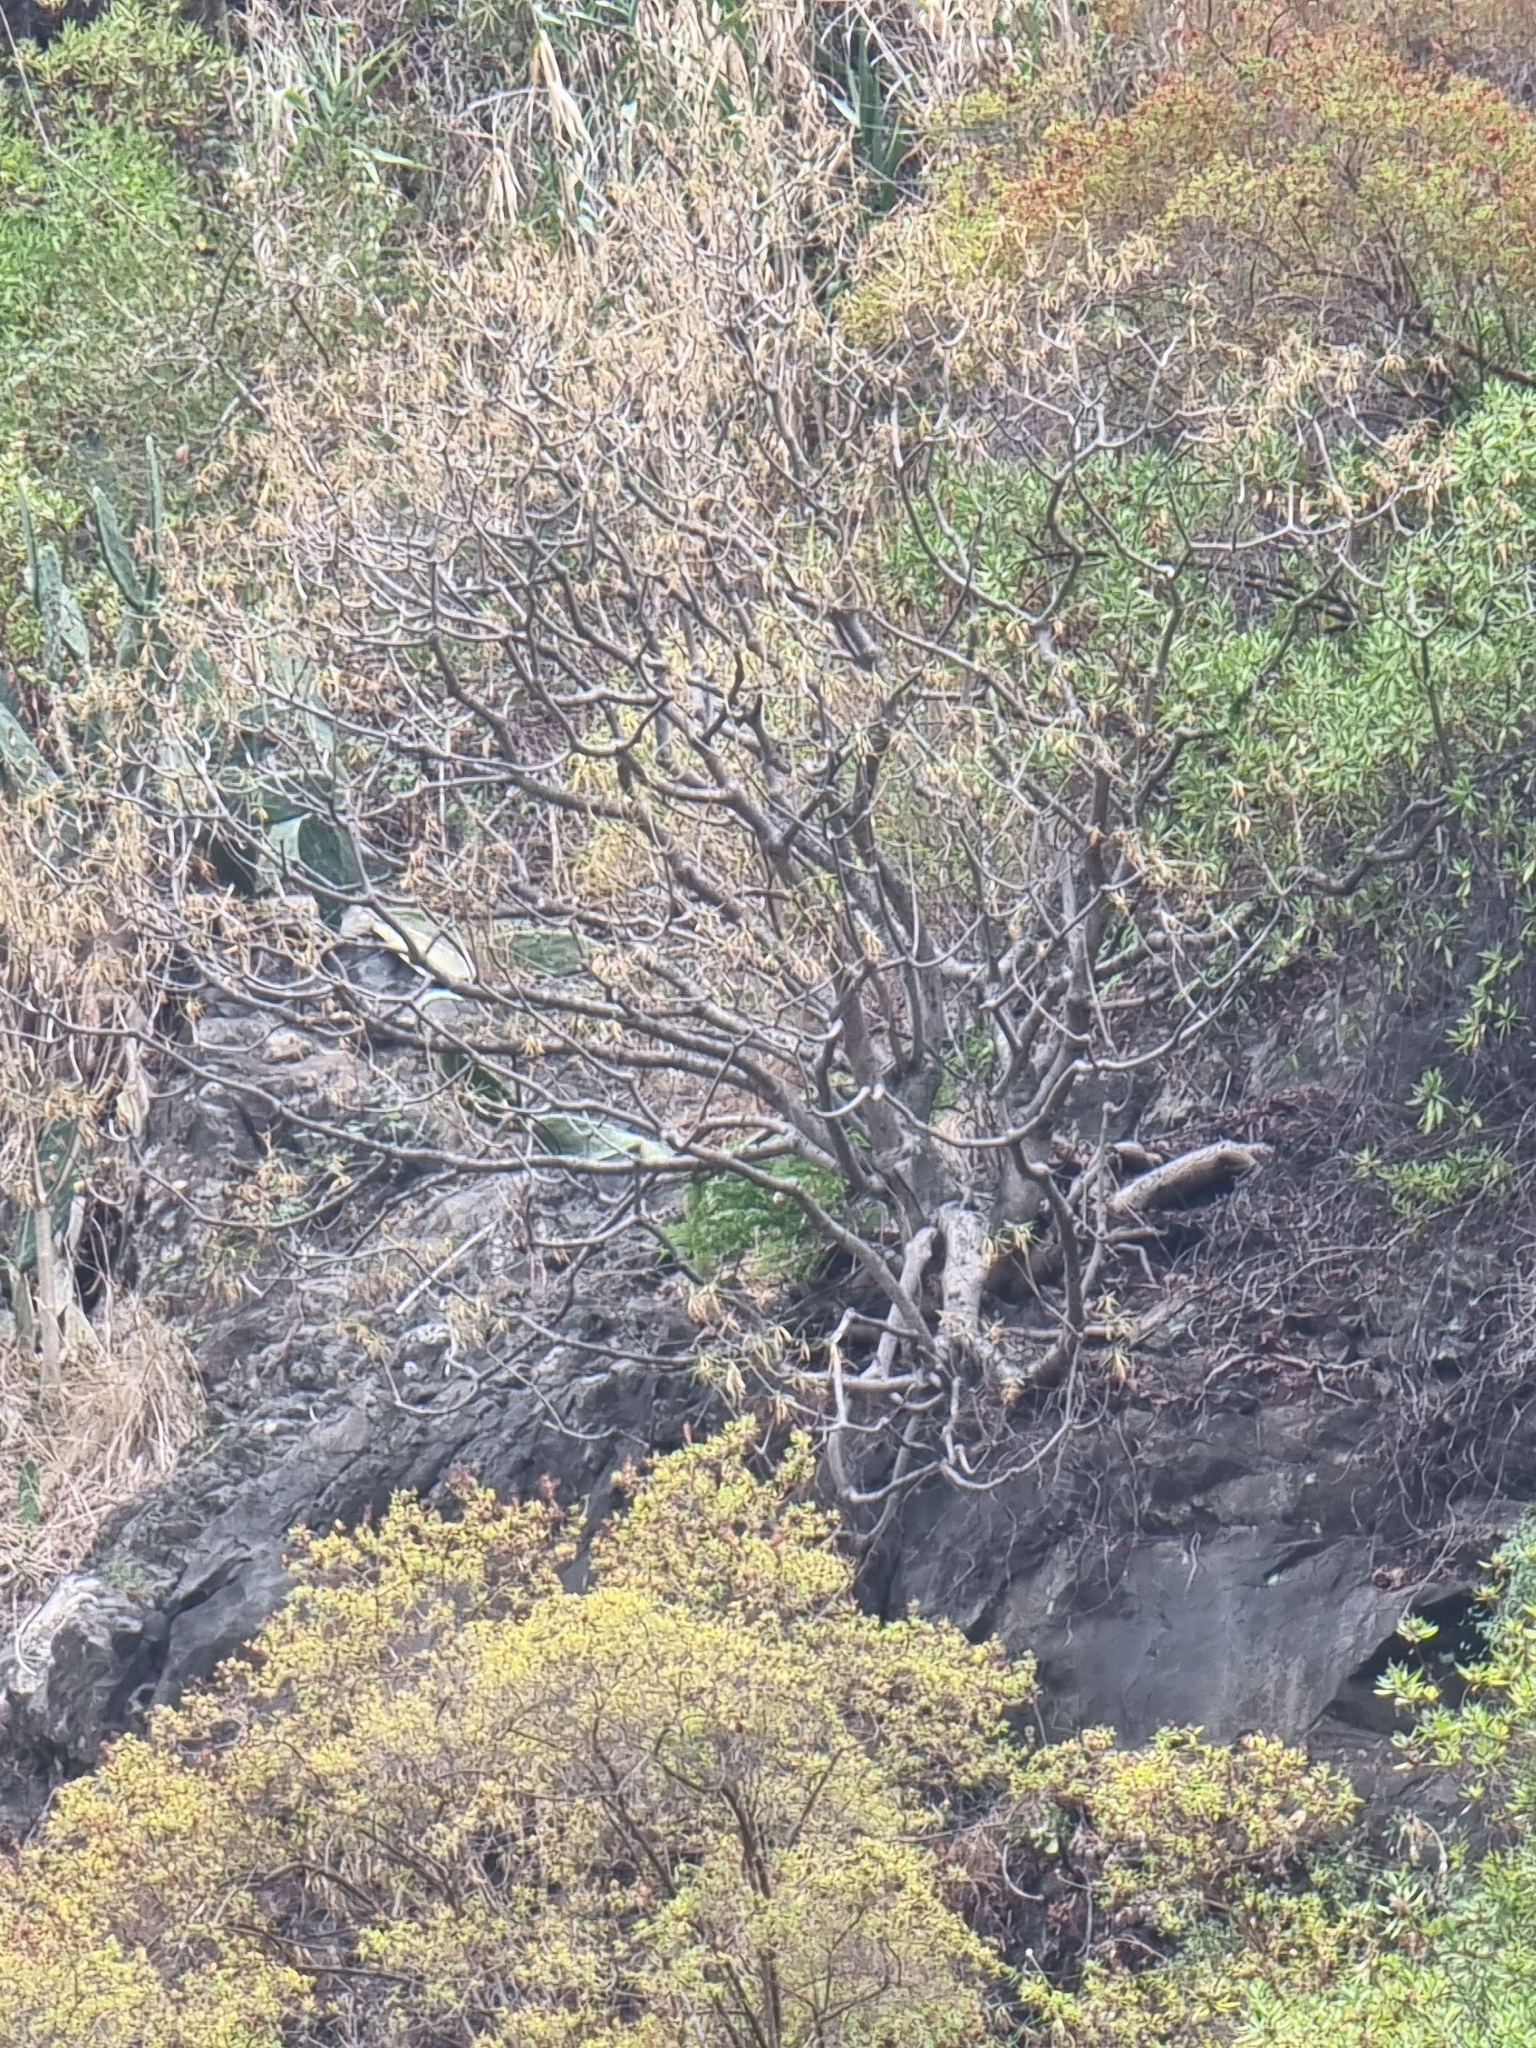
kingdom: Plantae
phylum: Tracheophyta
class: Magnoliopsida
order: Malpighiales
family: Euphorbiaceae
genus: Euphorbia
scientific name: Euphorbia piscatoria
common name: Fish-stunning spurge
